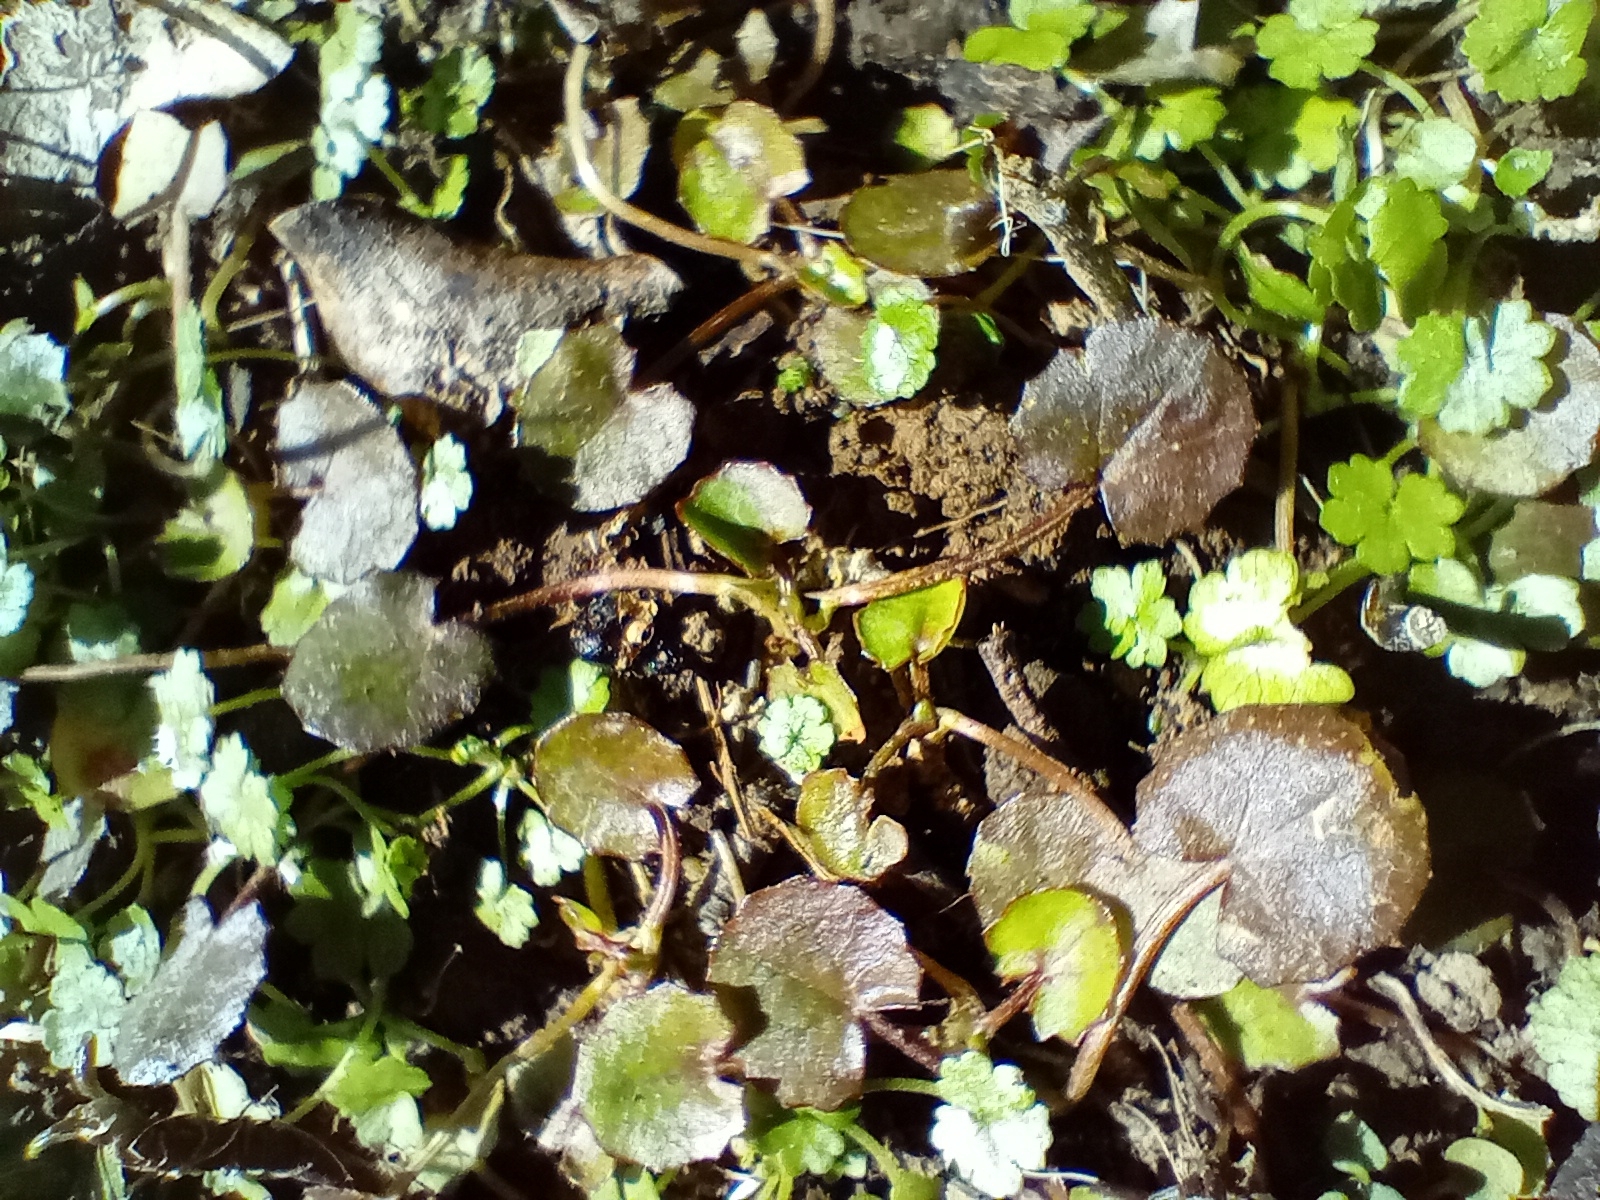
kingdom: Plantae
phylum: Tracheophyta
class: Magnoliopsida
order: Apiales
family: Apiaceae
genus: Centella
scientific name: Centella uniflora
